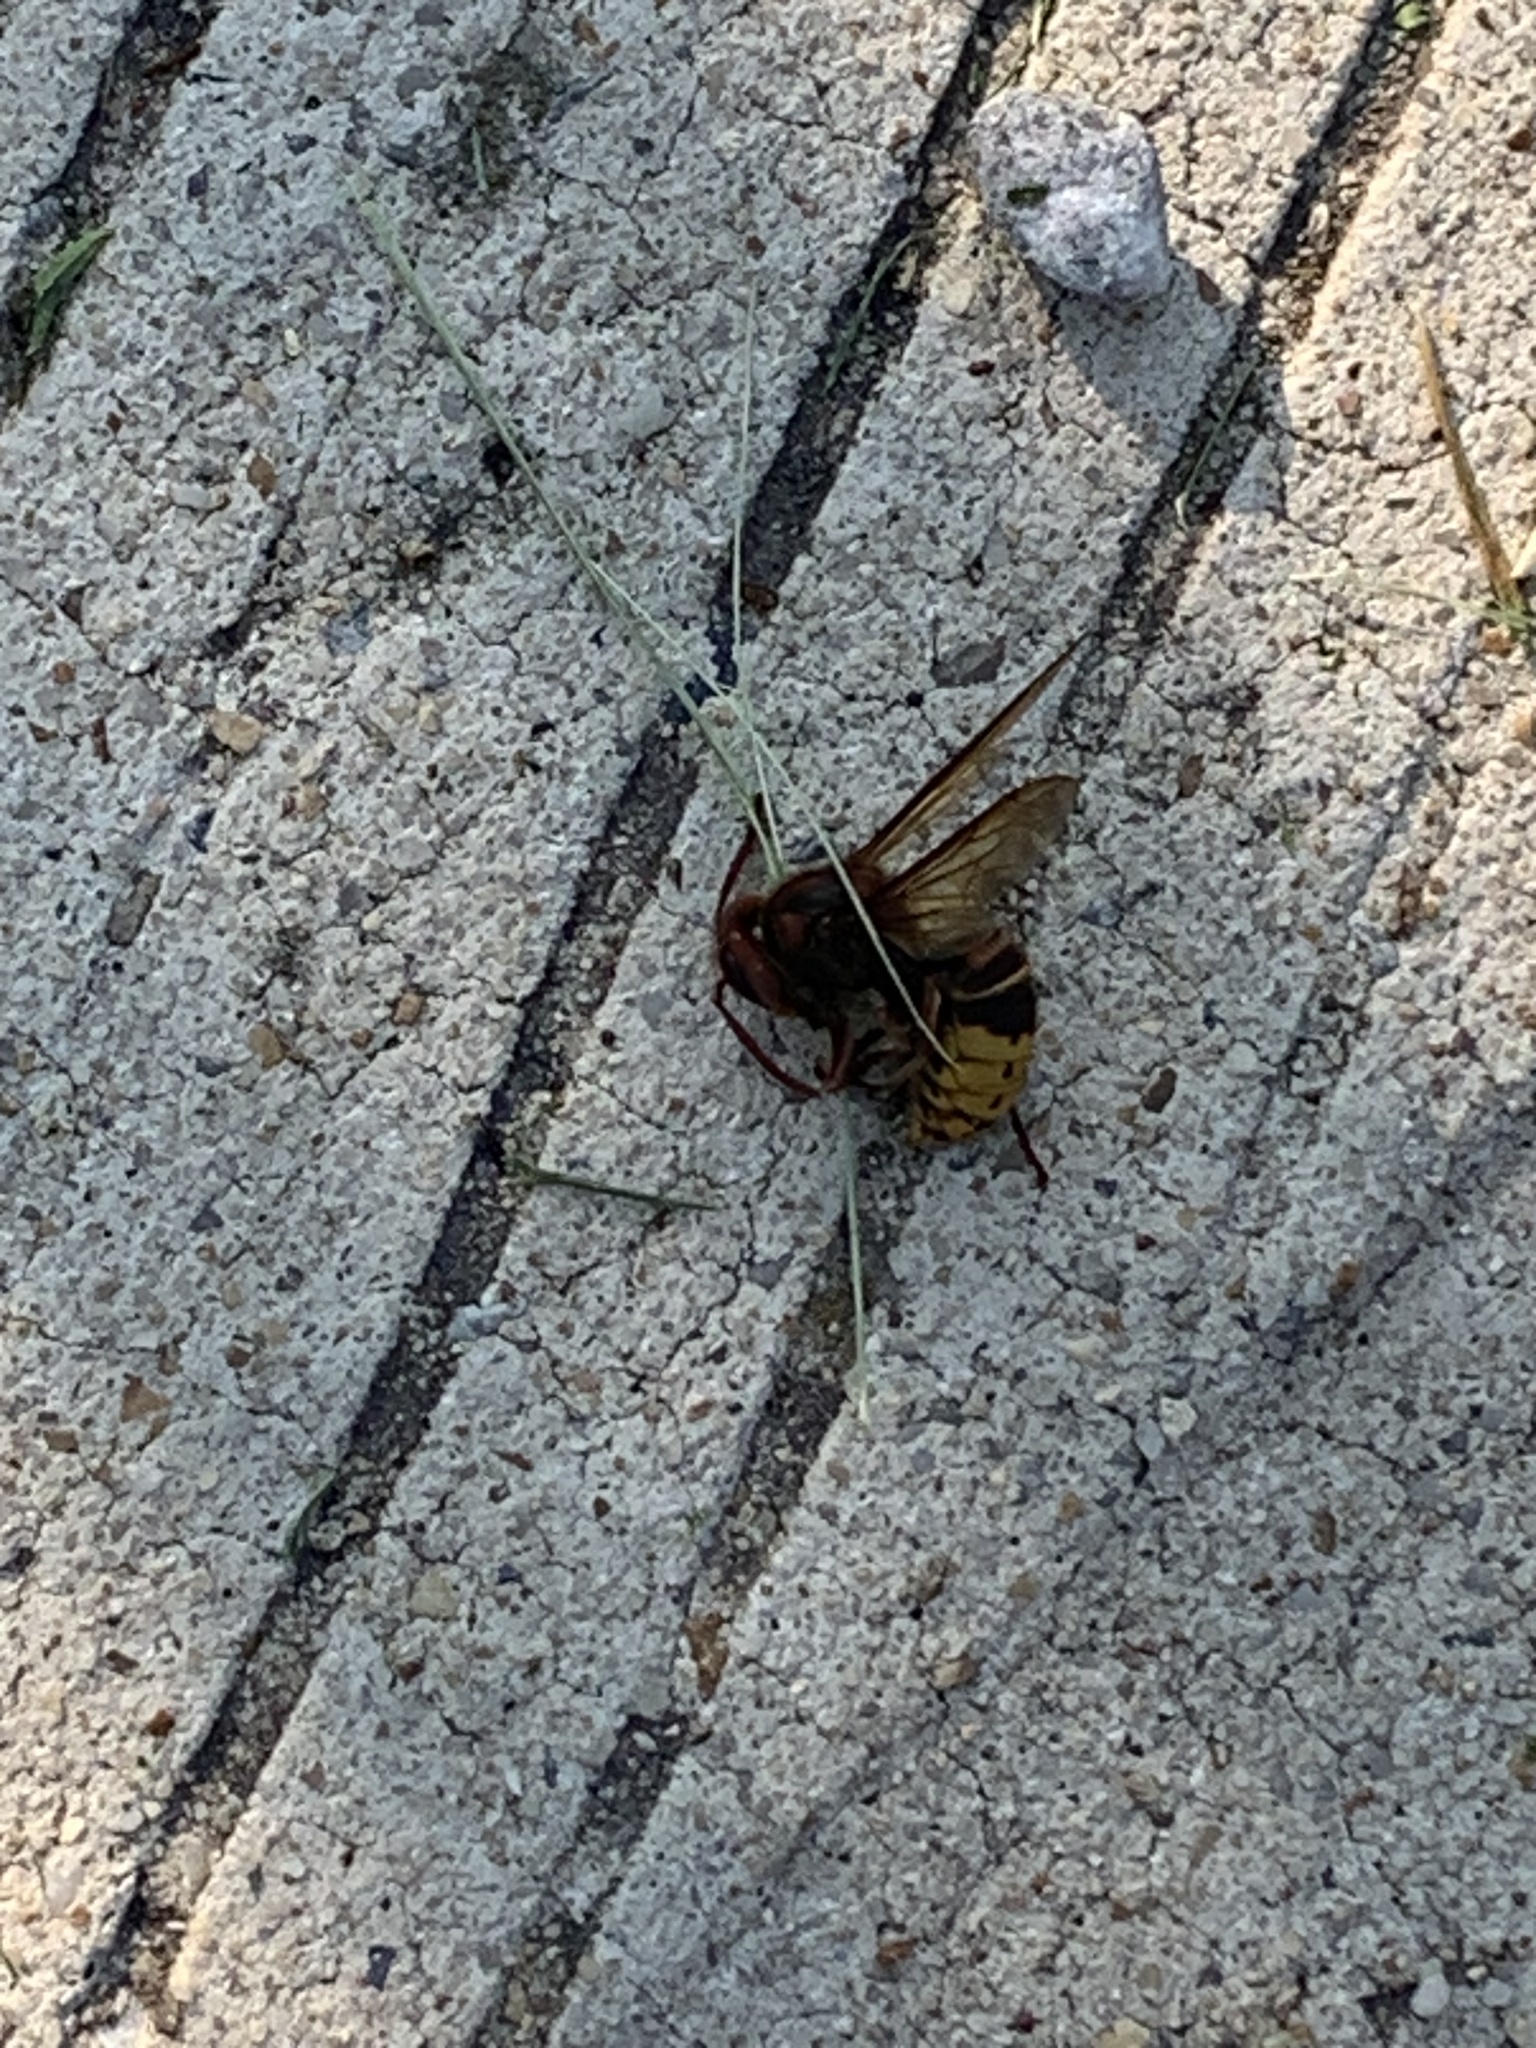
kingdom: Animalia
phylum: Arthropoda
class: Insecta
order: Hymenoptera
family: Vespidae
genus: Vespa
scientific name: Vespa crabro
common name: Hornet
